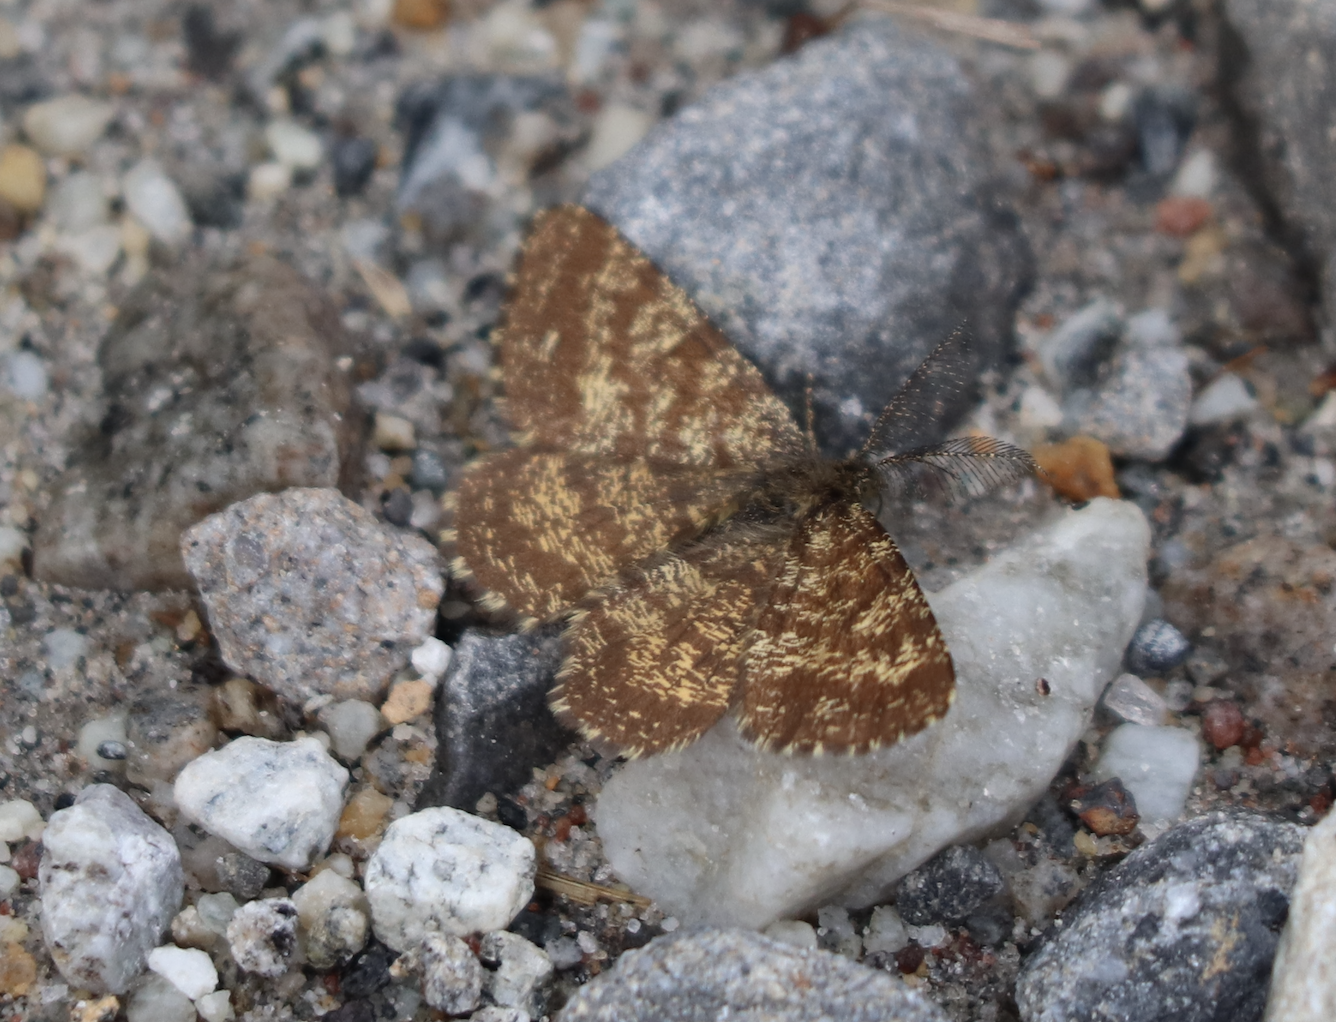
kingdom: Animalia
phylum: Arthropoda
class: Insecta
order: Lepidoptera
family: Geometridae
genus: Ematurga
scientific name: Ematurga atomaria
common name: Common heath
